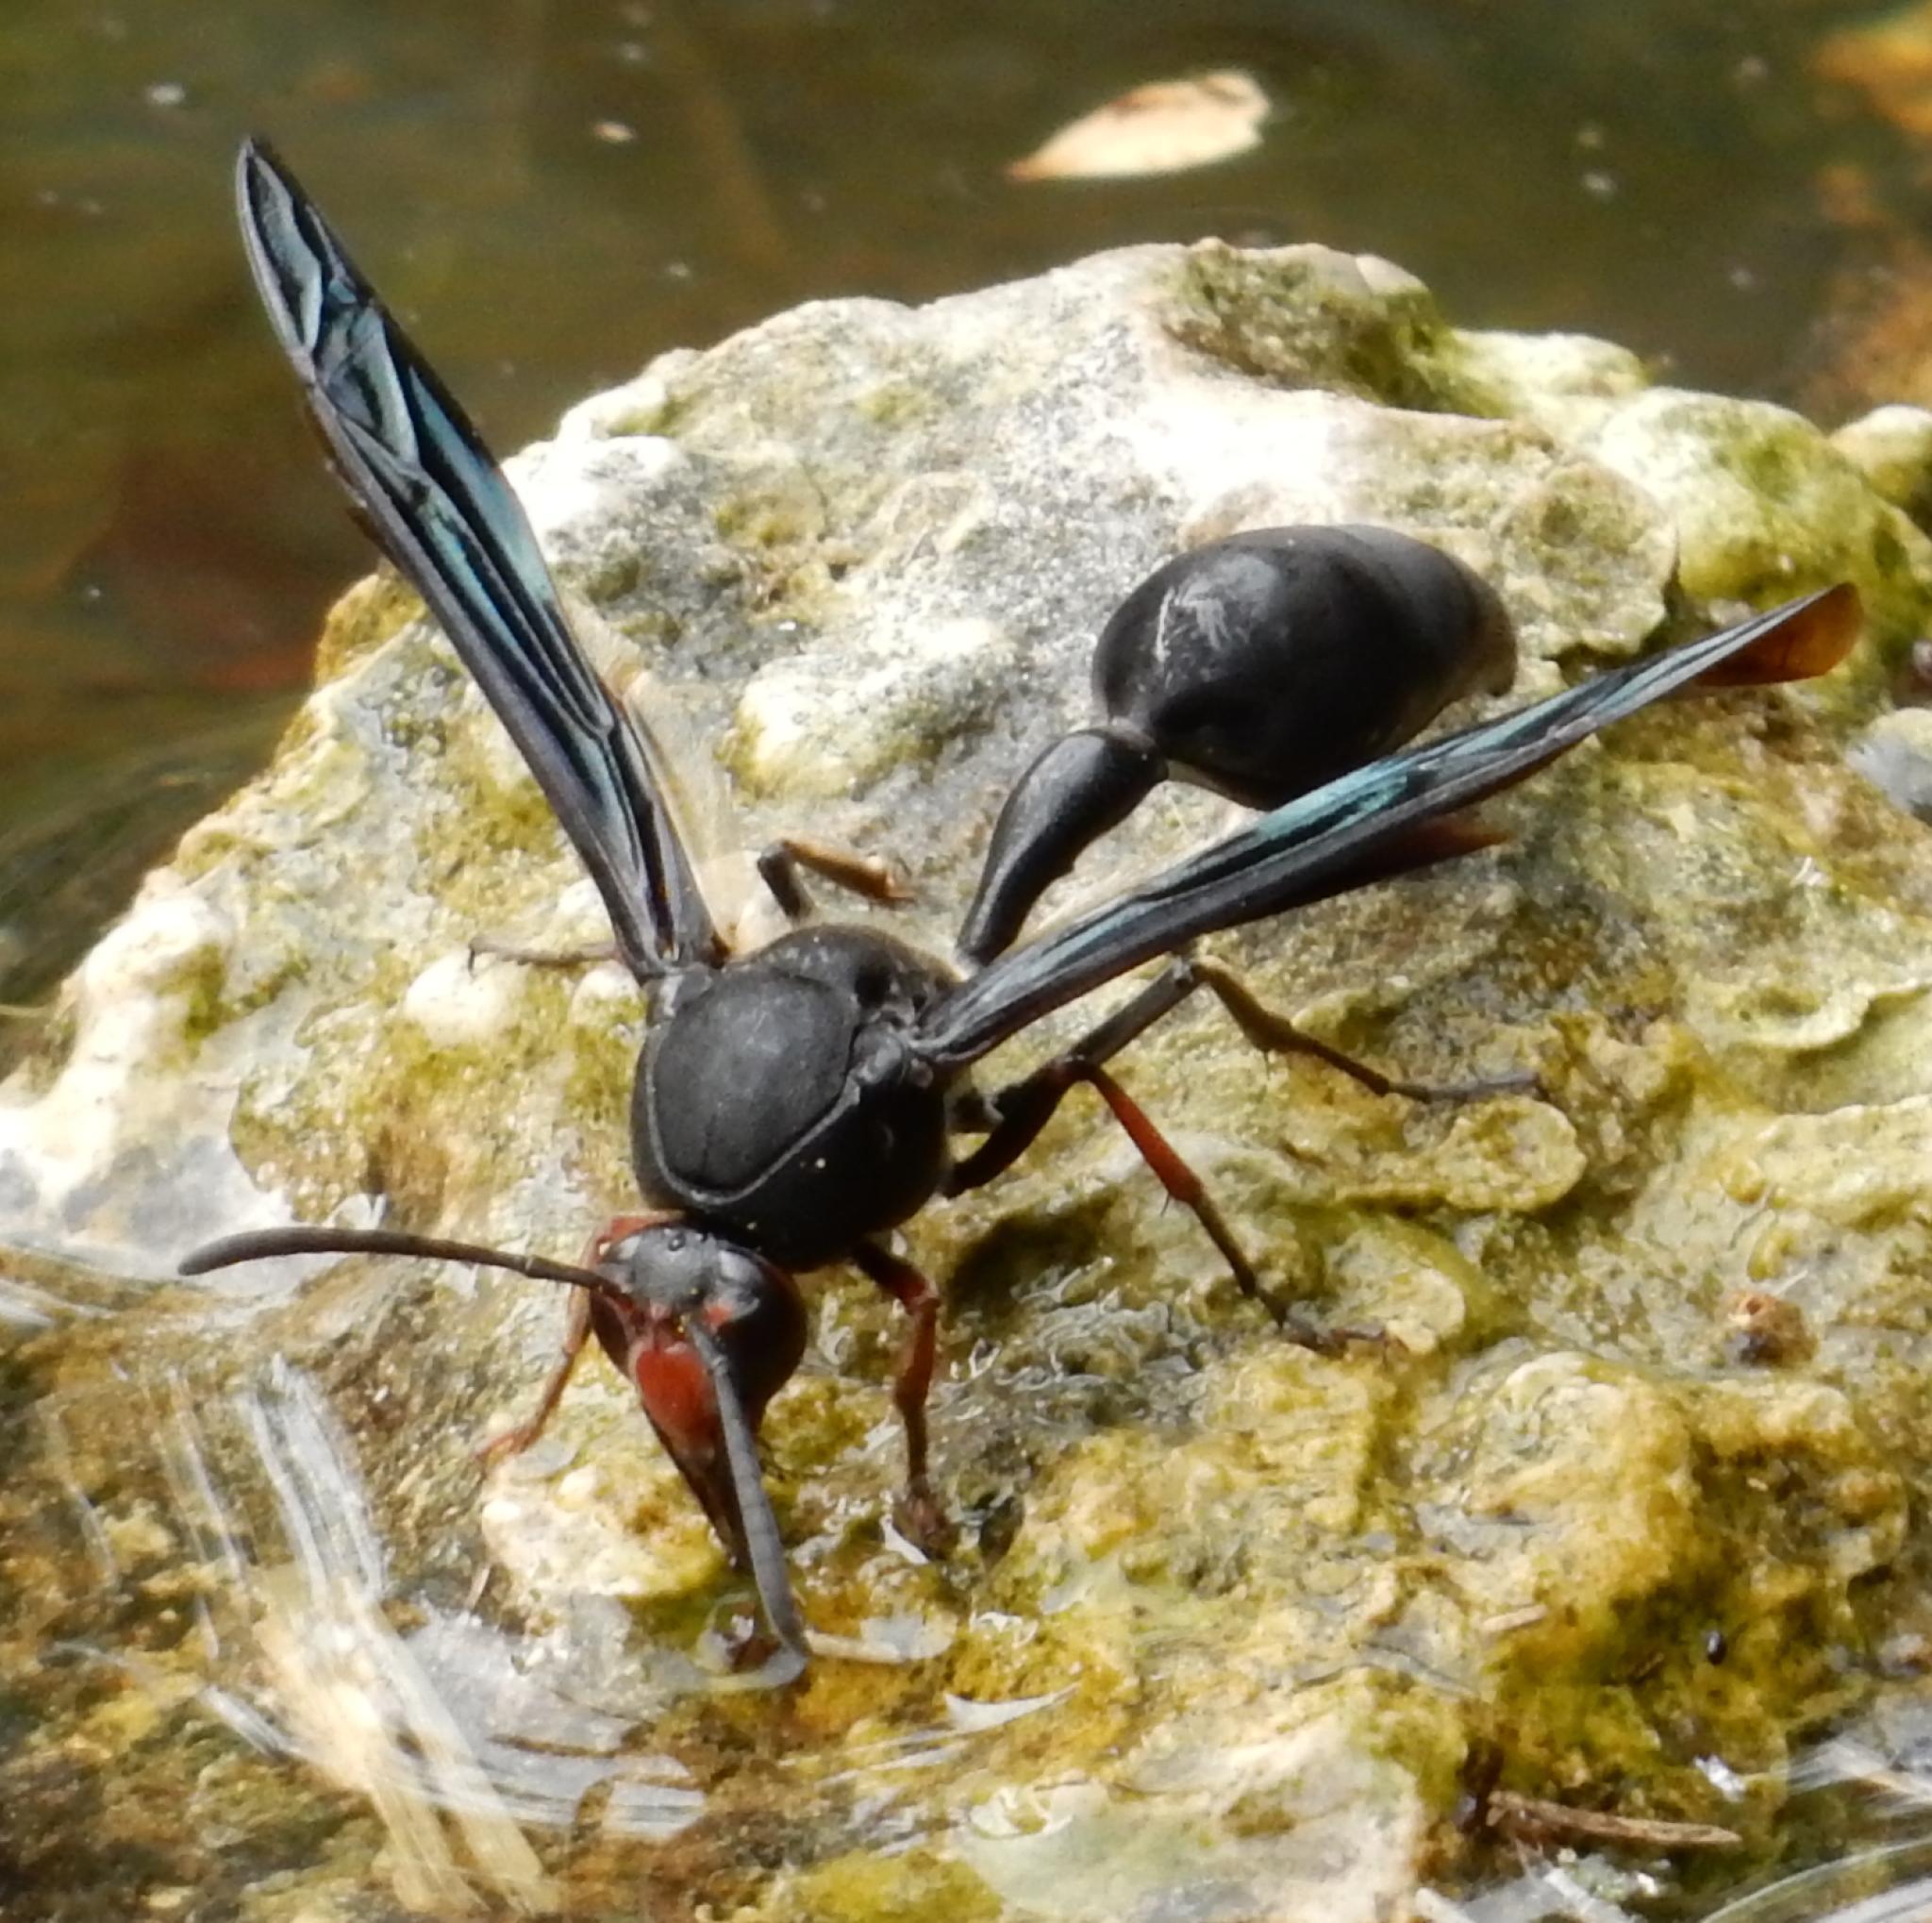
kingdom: Animalia
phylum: Arthropoda
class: Insecta
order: Hymenoptera
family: Eumenidae
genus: Delta
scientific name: Delta bonellii
